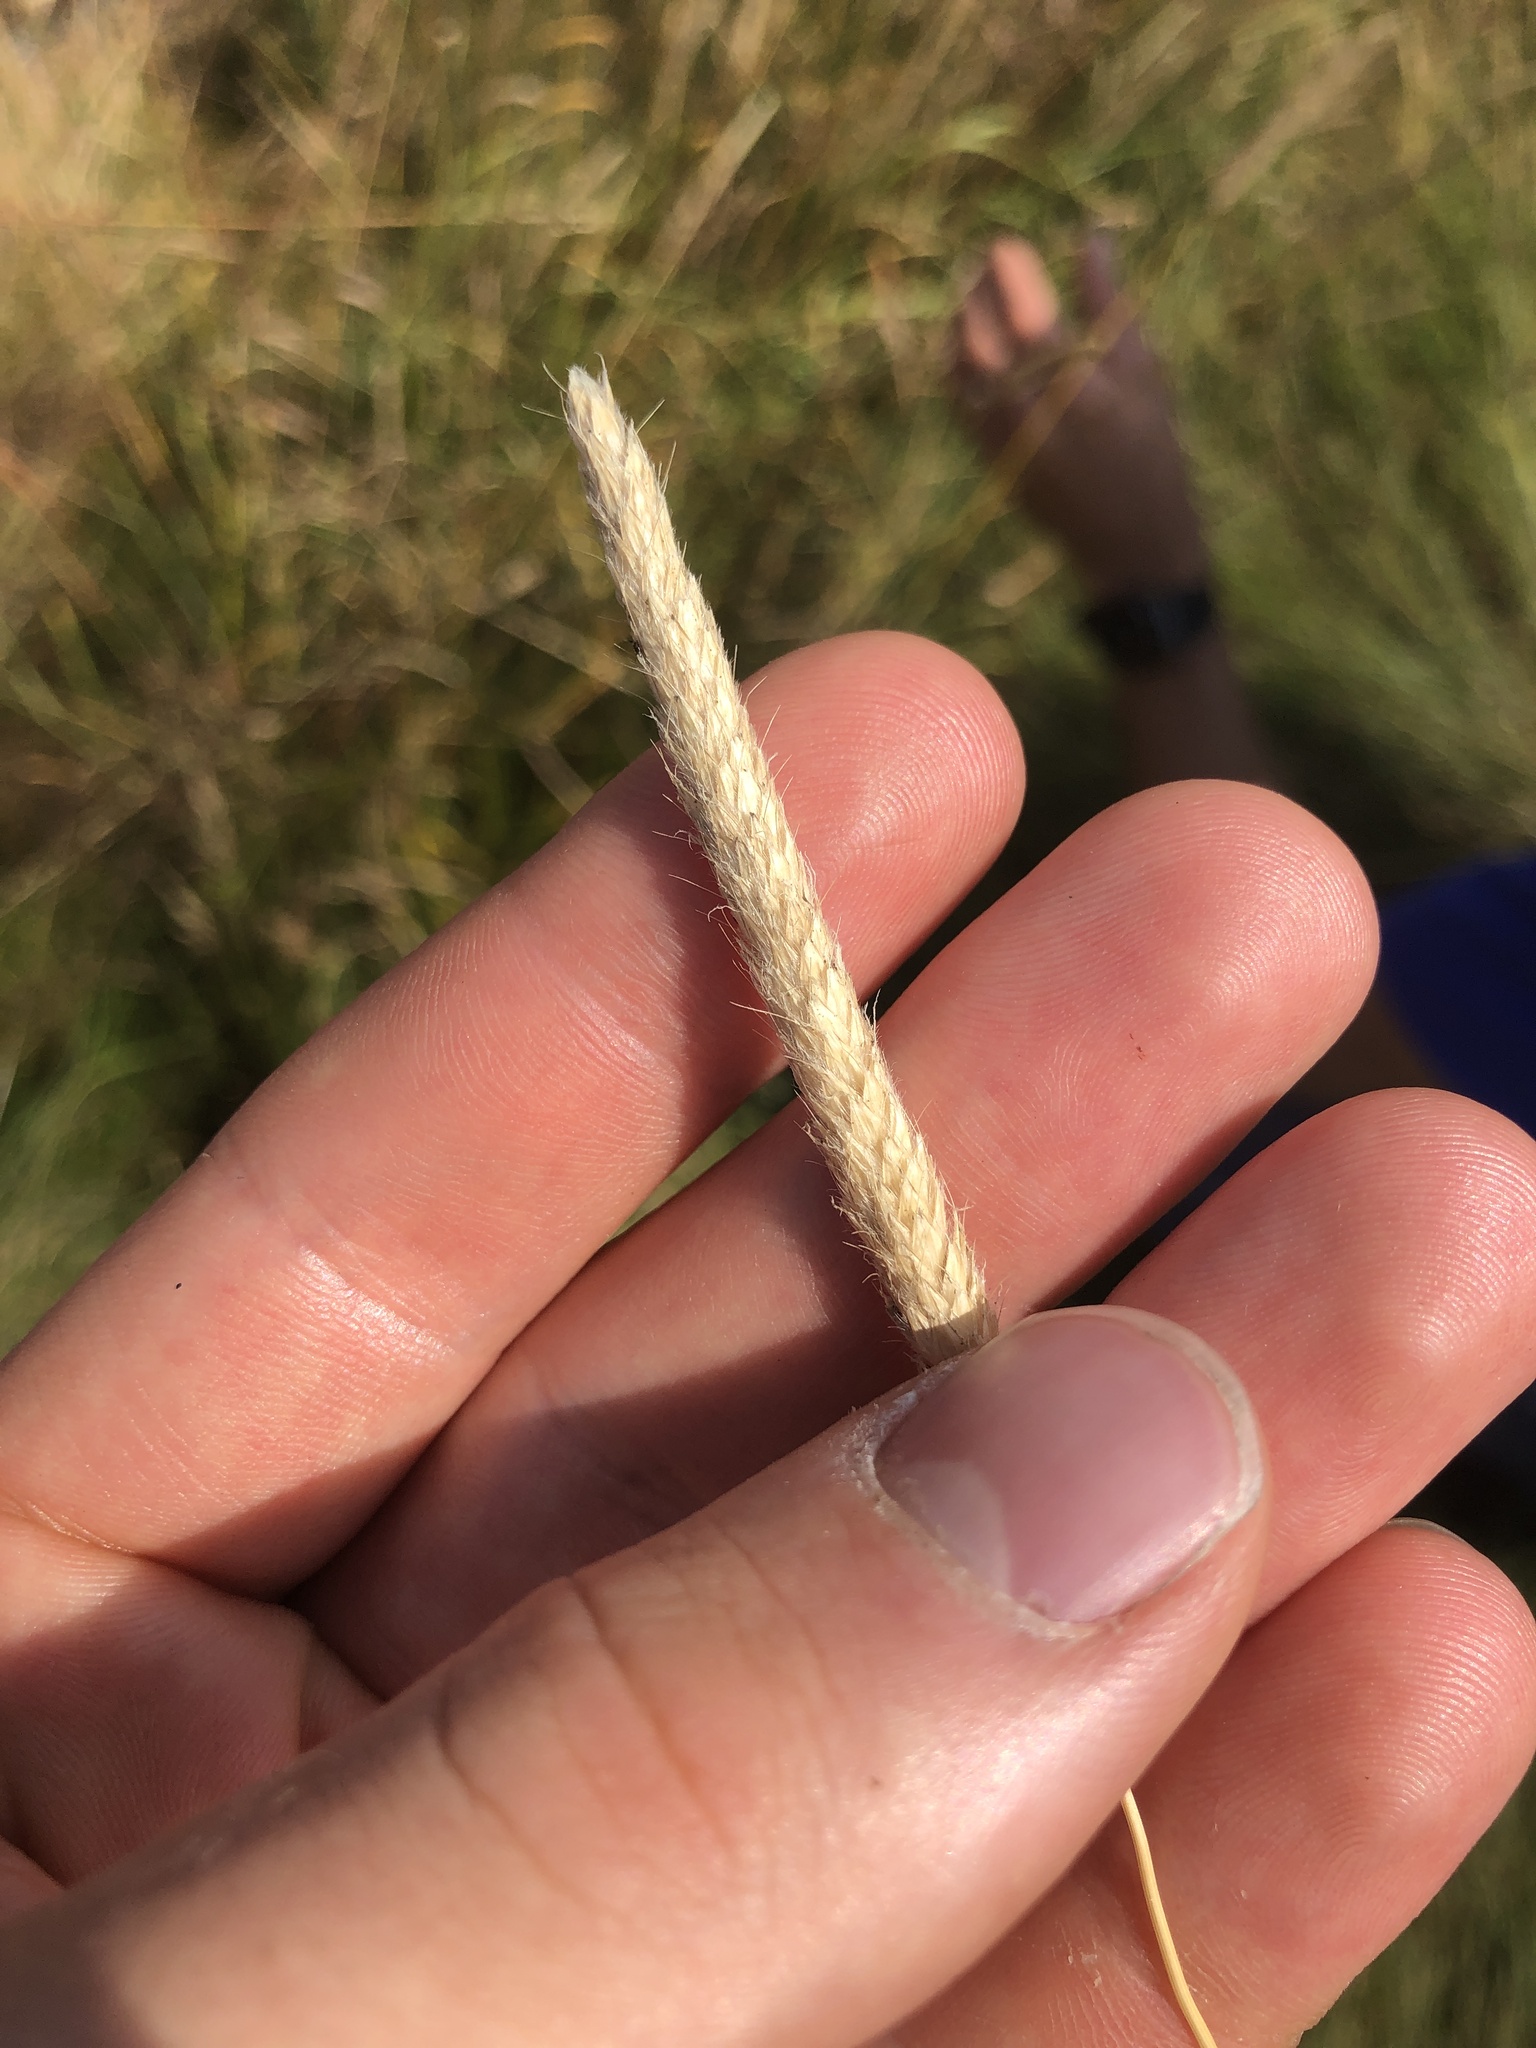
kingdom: Plantae
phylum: Tracheophyta
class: Liliopsida
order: Poales
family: Poaceae
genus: Alopecurus
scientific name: Alopecurus pratensis
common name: Meadow foxtail
